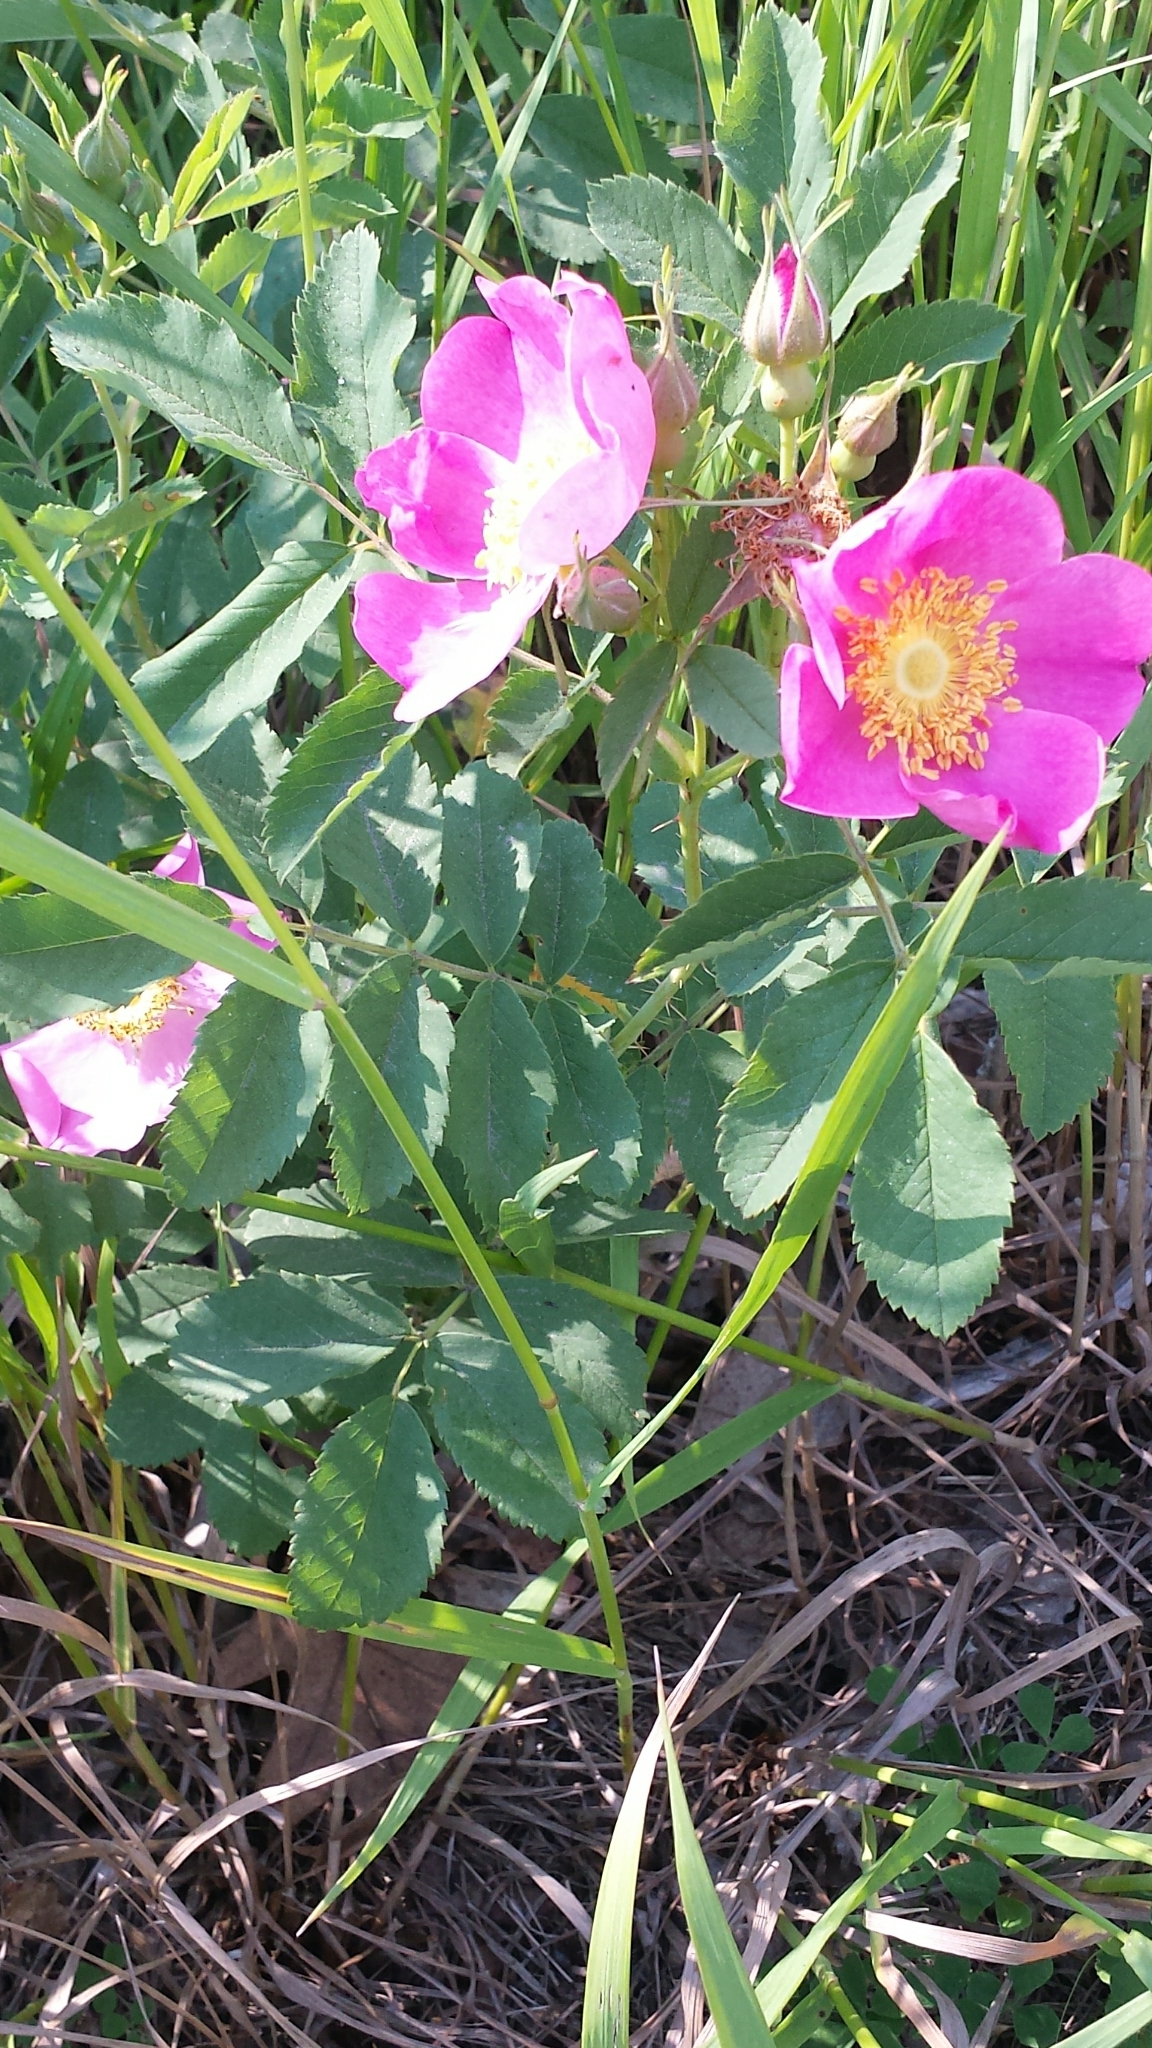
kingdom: Plantae
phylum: Tracheophyta
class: Magnoliopsida
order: Rosales
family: Rosaceae
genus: Rosa
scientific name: Rosa carolina
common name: Pasture rose
